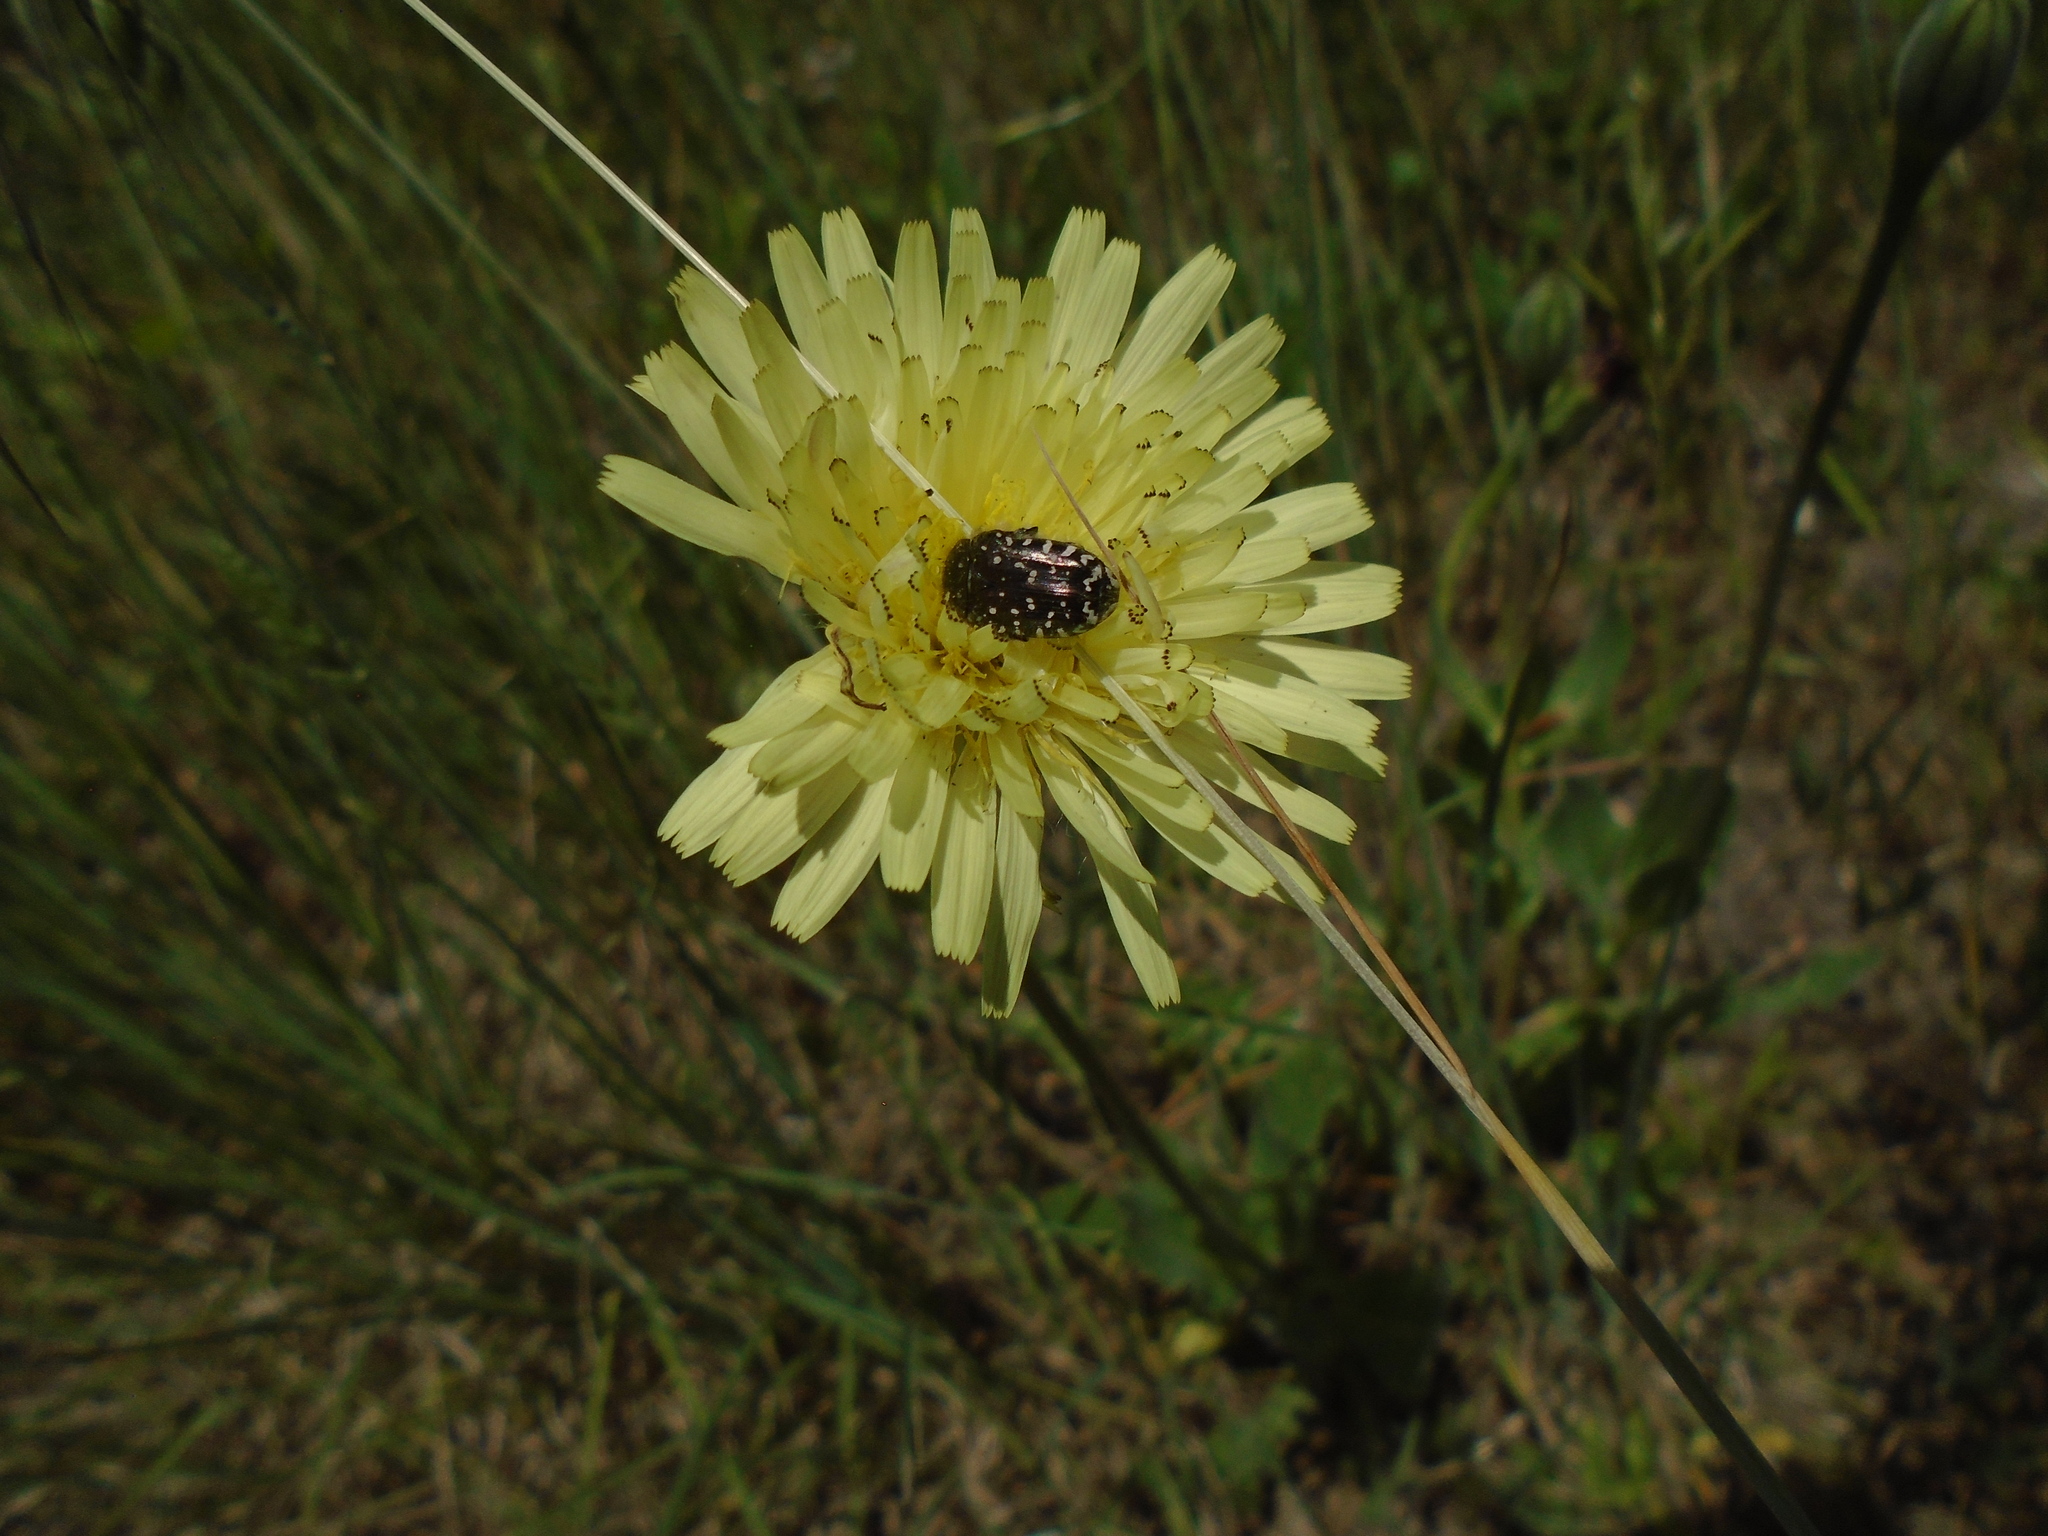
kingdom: Animalia
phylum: Arthropoda
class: Insecta
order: Coleoptera
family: Scarabaeidae
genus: Oxythyrea
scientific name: Oxythyrea funesta
